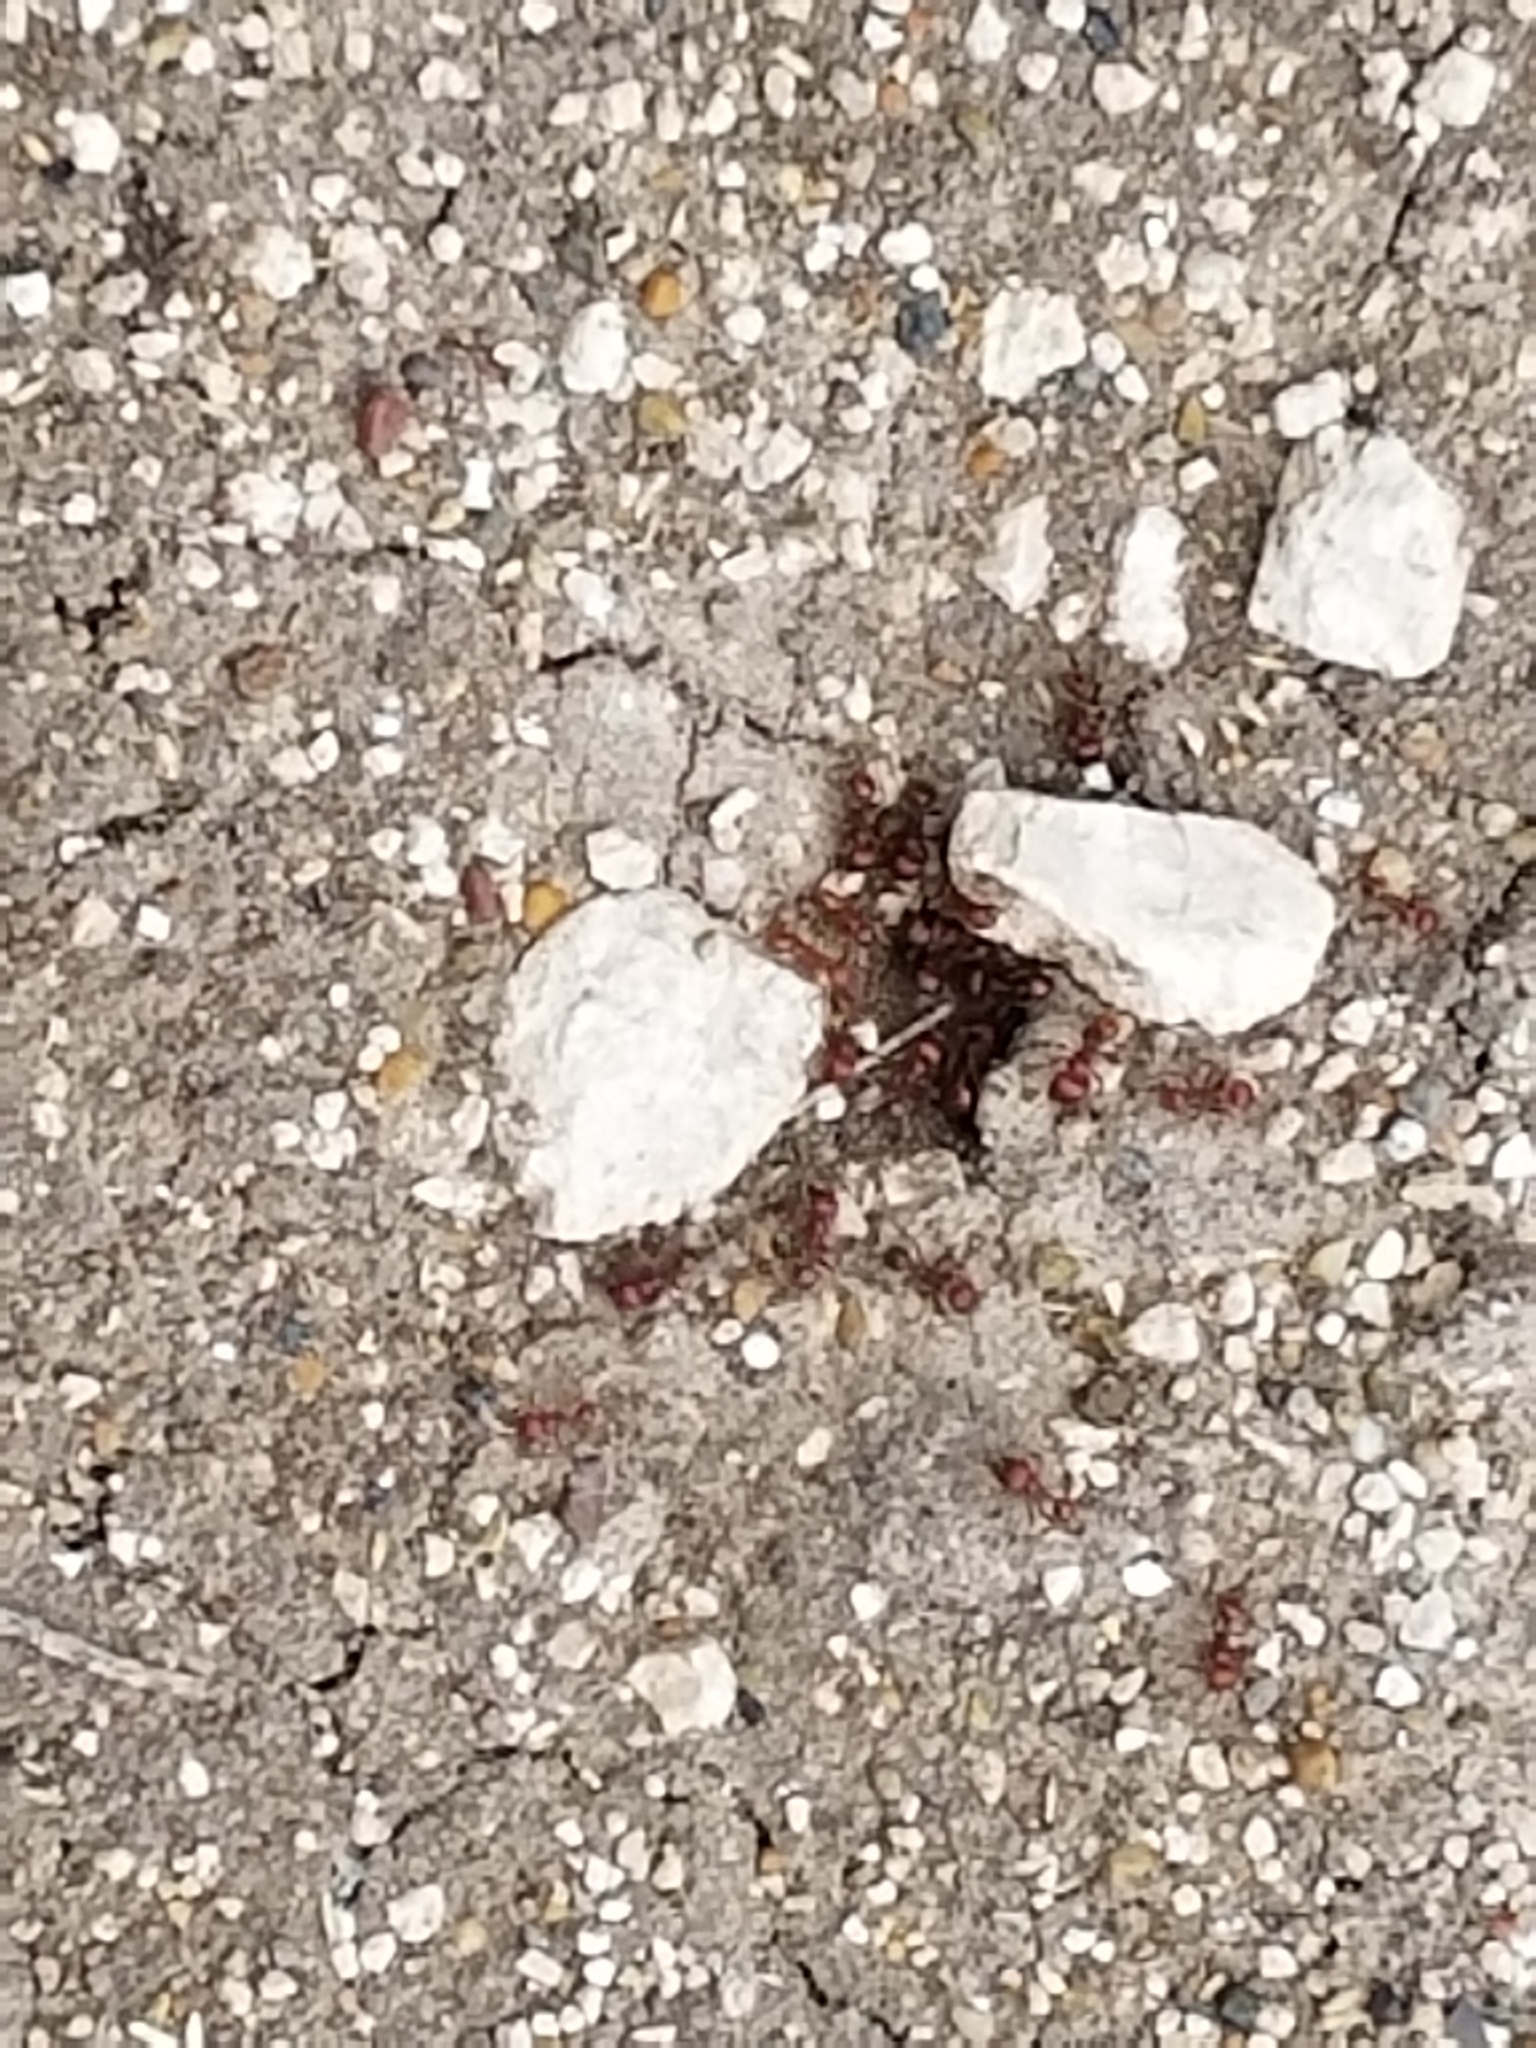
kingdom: Animalia
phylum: Arthropoda
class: Insecta
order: Hymenoptera
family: Formicidae
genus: Pogonomyrmex
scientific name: Pogonomyrmex barbatus
